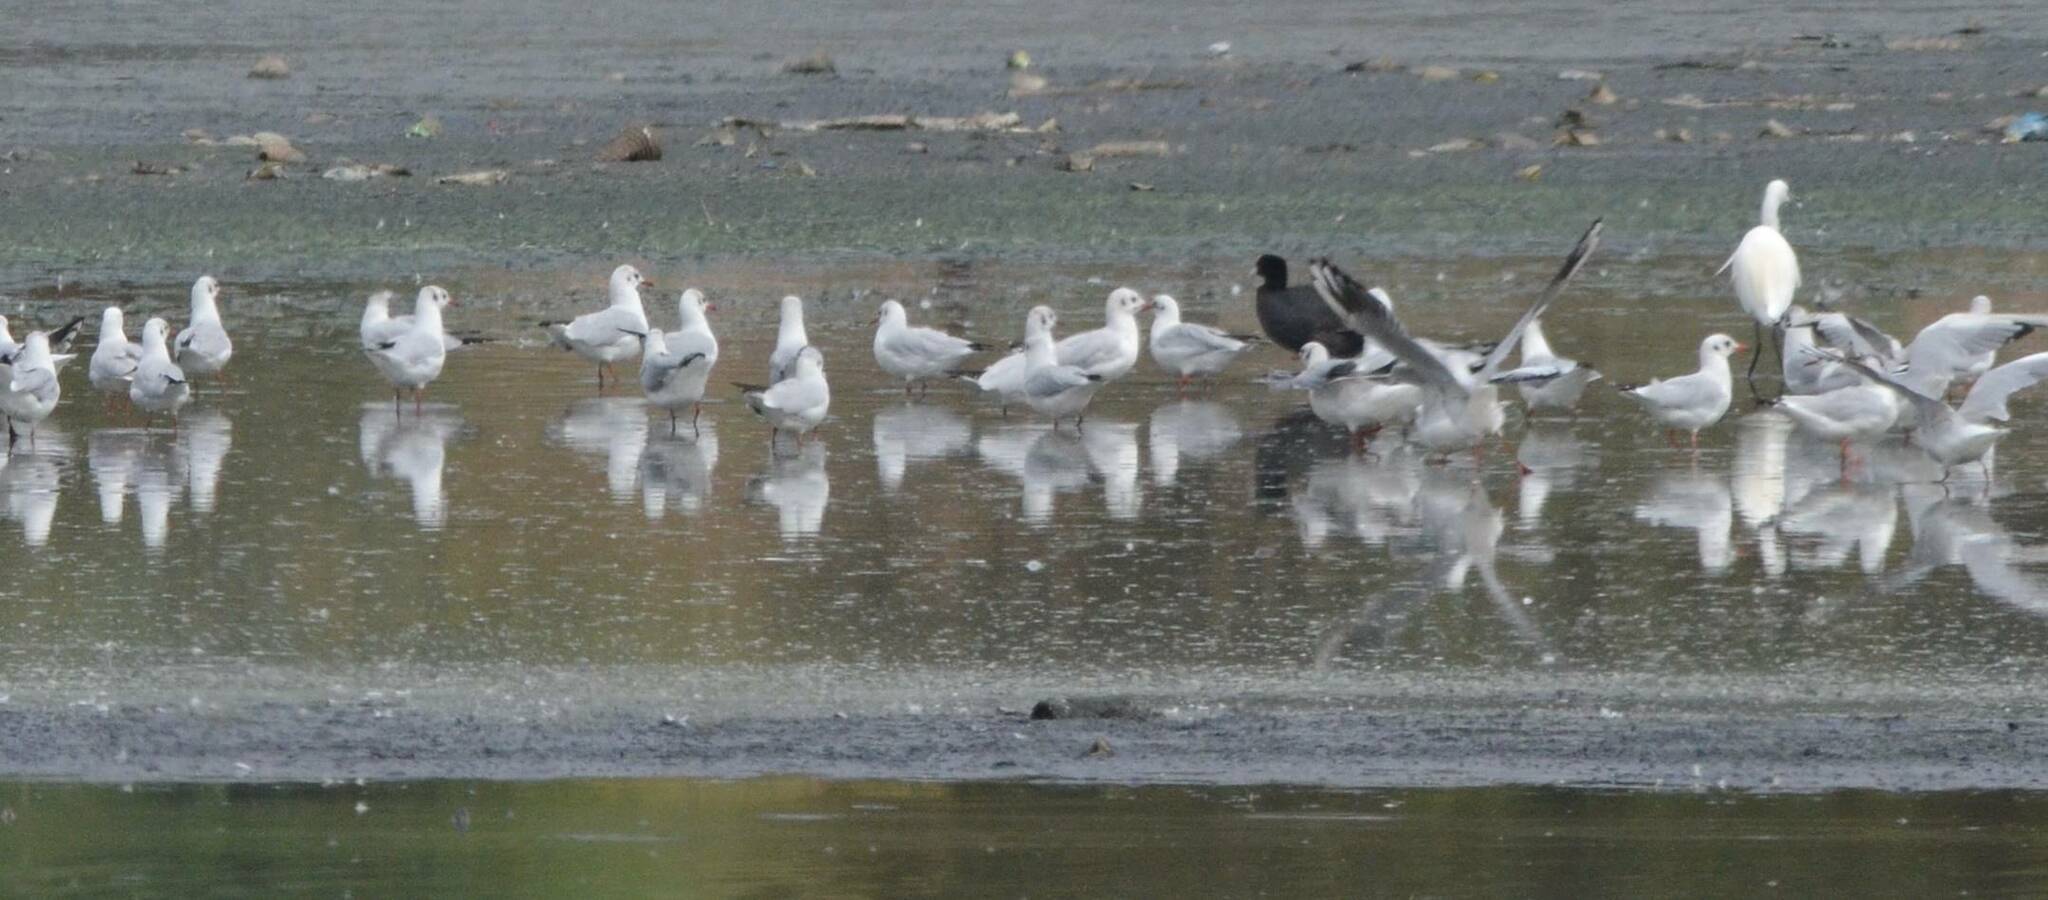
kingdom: Animalia
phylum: Chordata
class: Aves
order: Charadriiformes
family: Laridae
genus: Chroicocephalus
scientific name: Chroicocephalus ridibundus
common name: Black-headed gull
